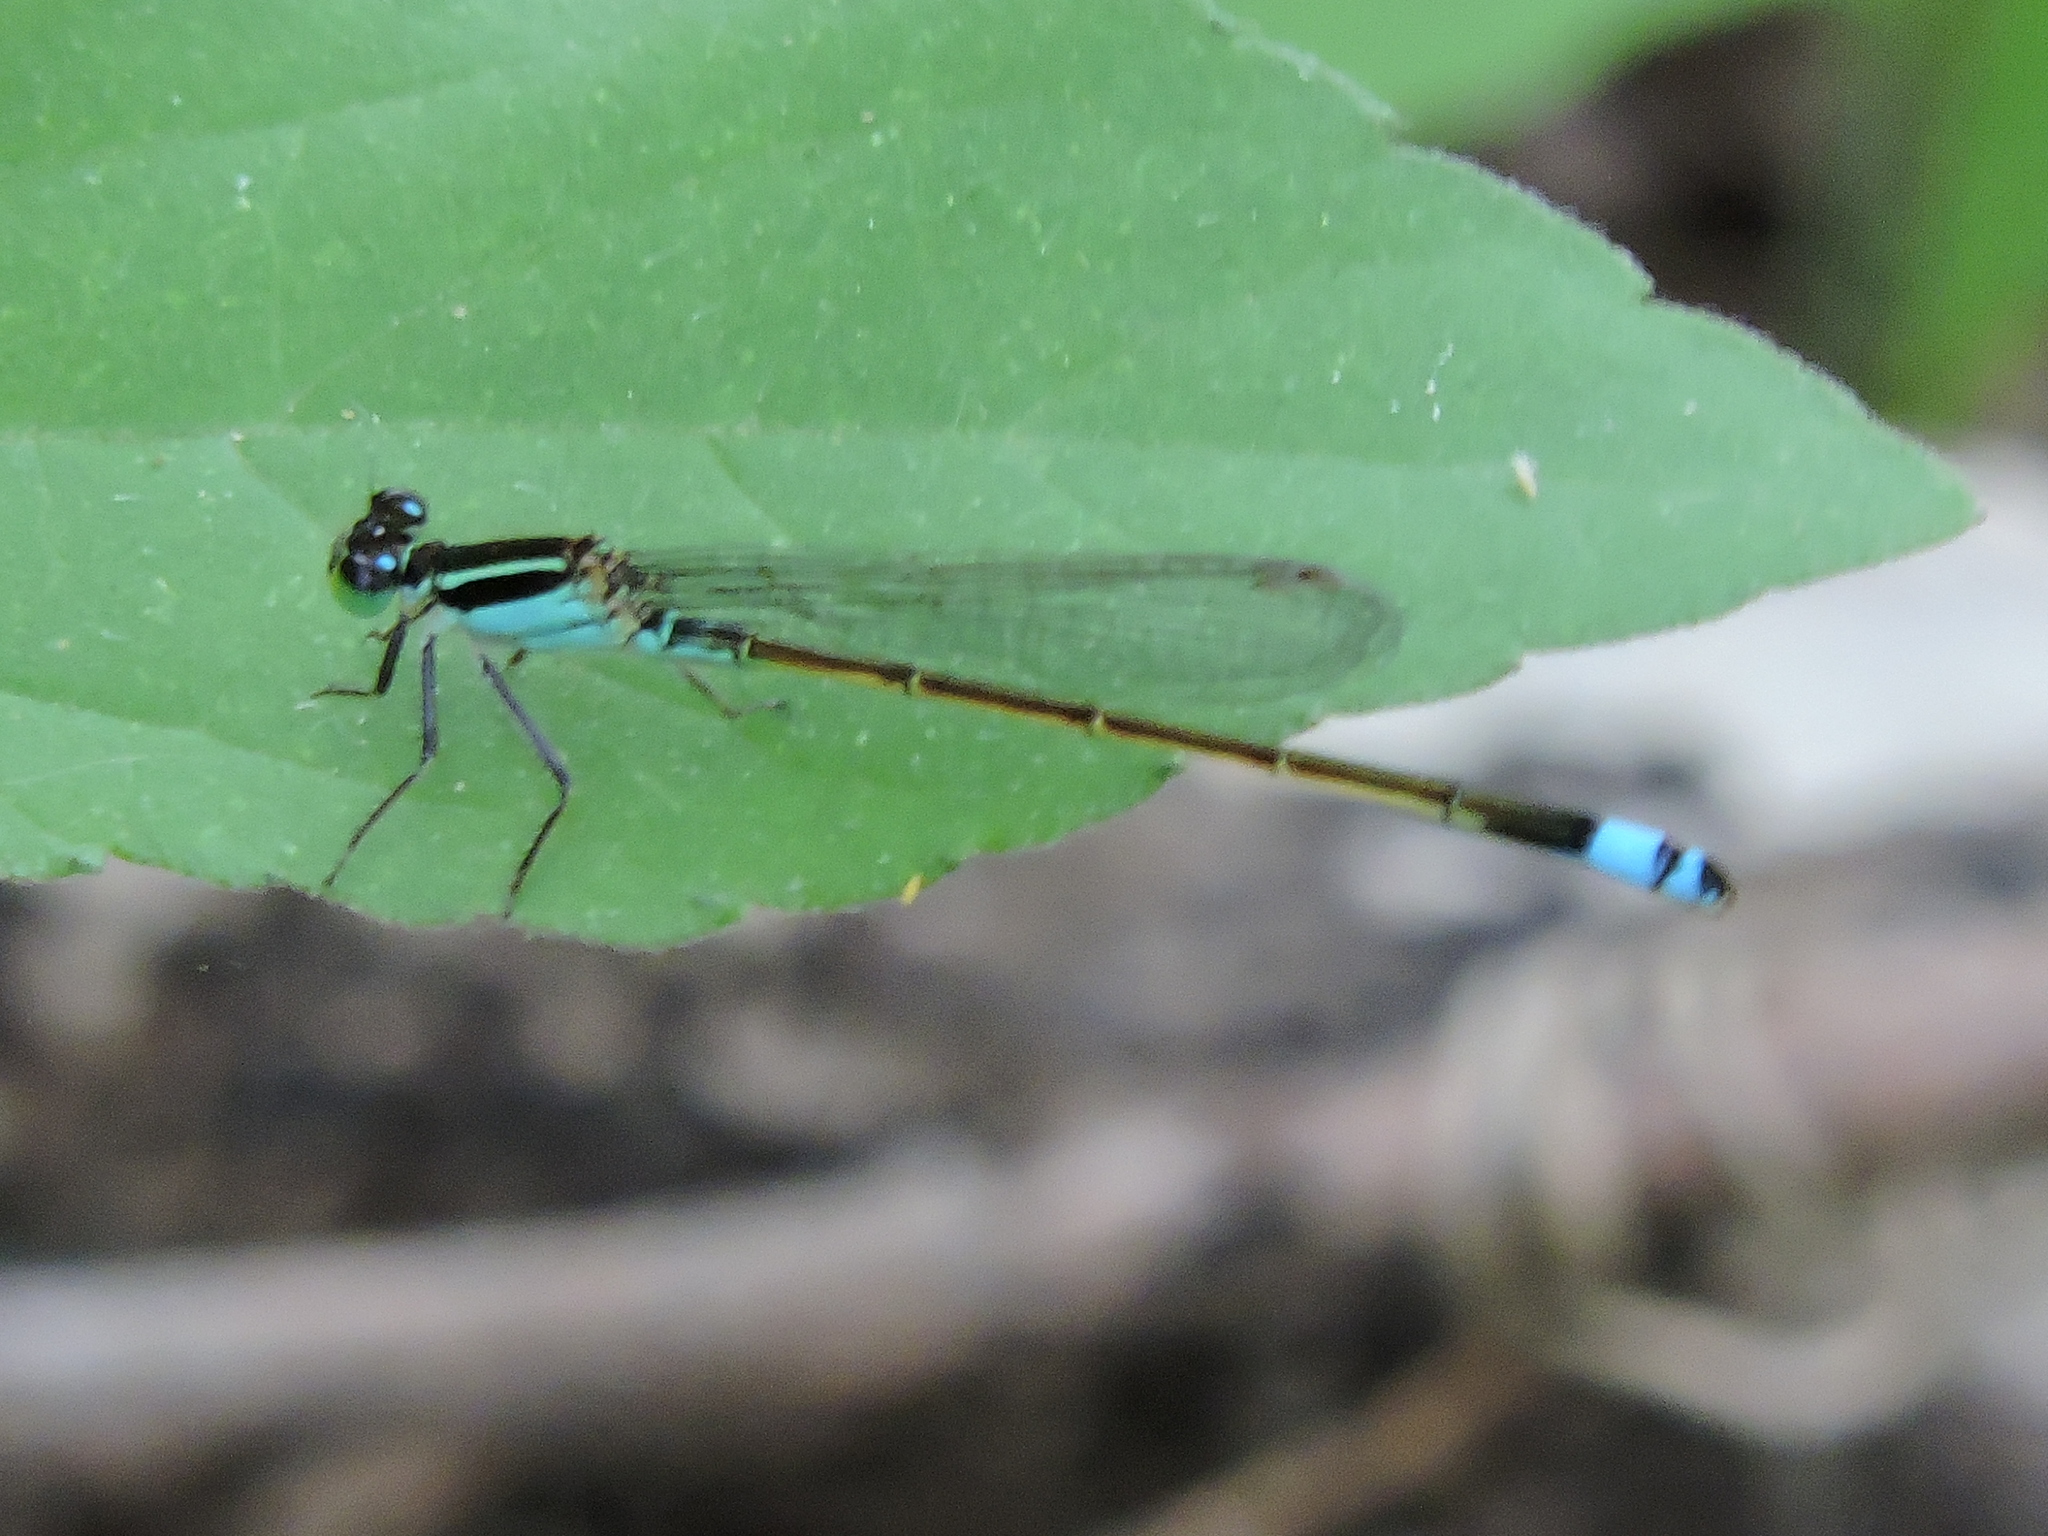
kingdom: Animalia
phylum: Arthropoda
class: Insecta
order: Odonata
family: Coenagrionidae
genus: Ischnura
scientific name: Ischnura ramburii
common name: Rambur's forktail
